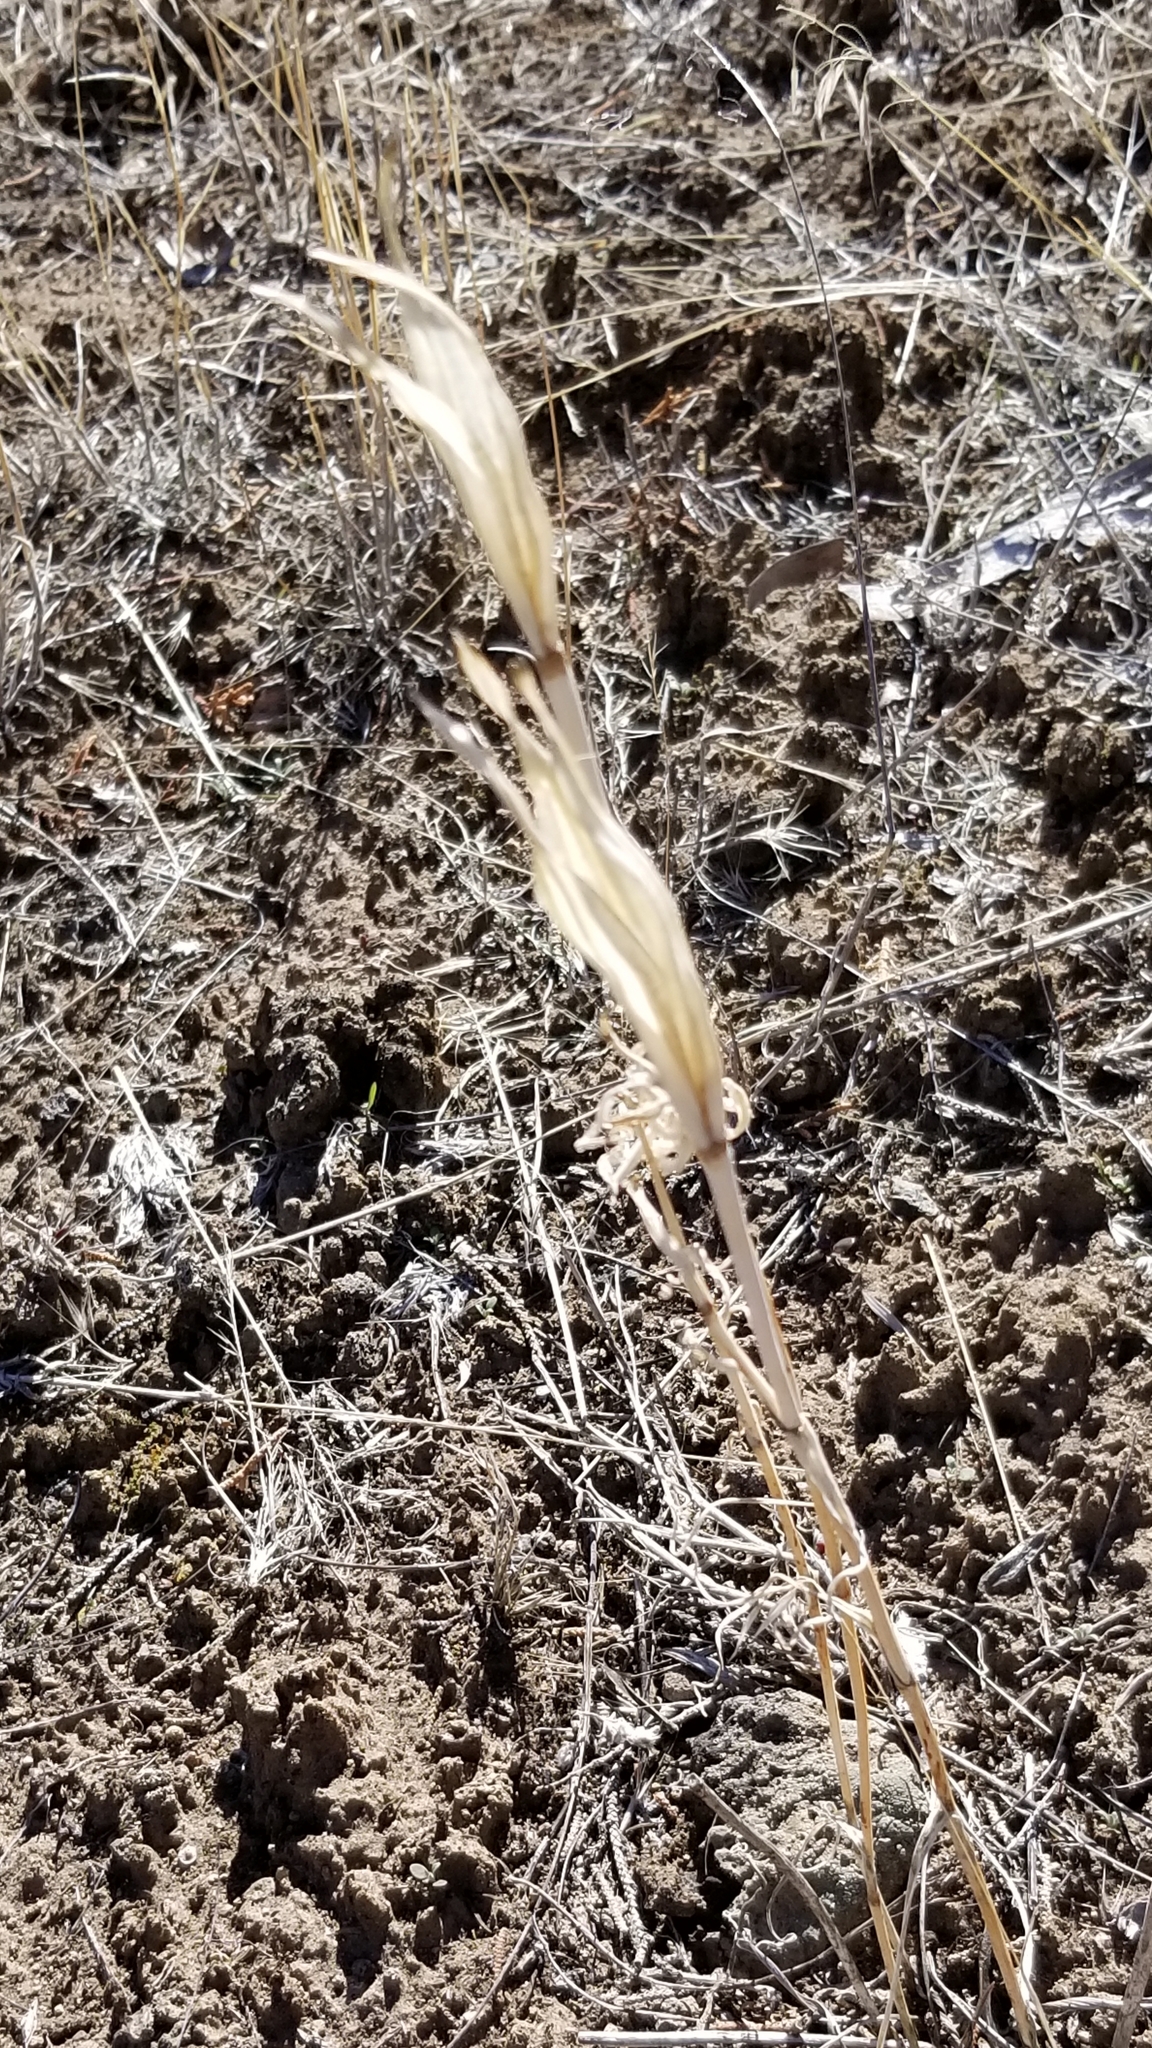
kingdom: Plantae
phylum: Tracheophyta
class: Liliopsida
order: Liliales
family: Liliaceae
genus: Calochortus
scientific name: Calochortus macrocarpus
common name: Green-band mariposa lily
